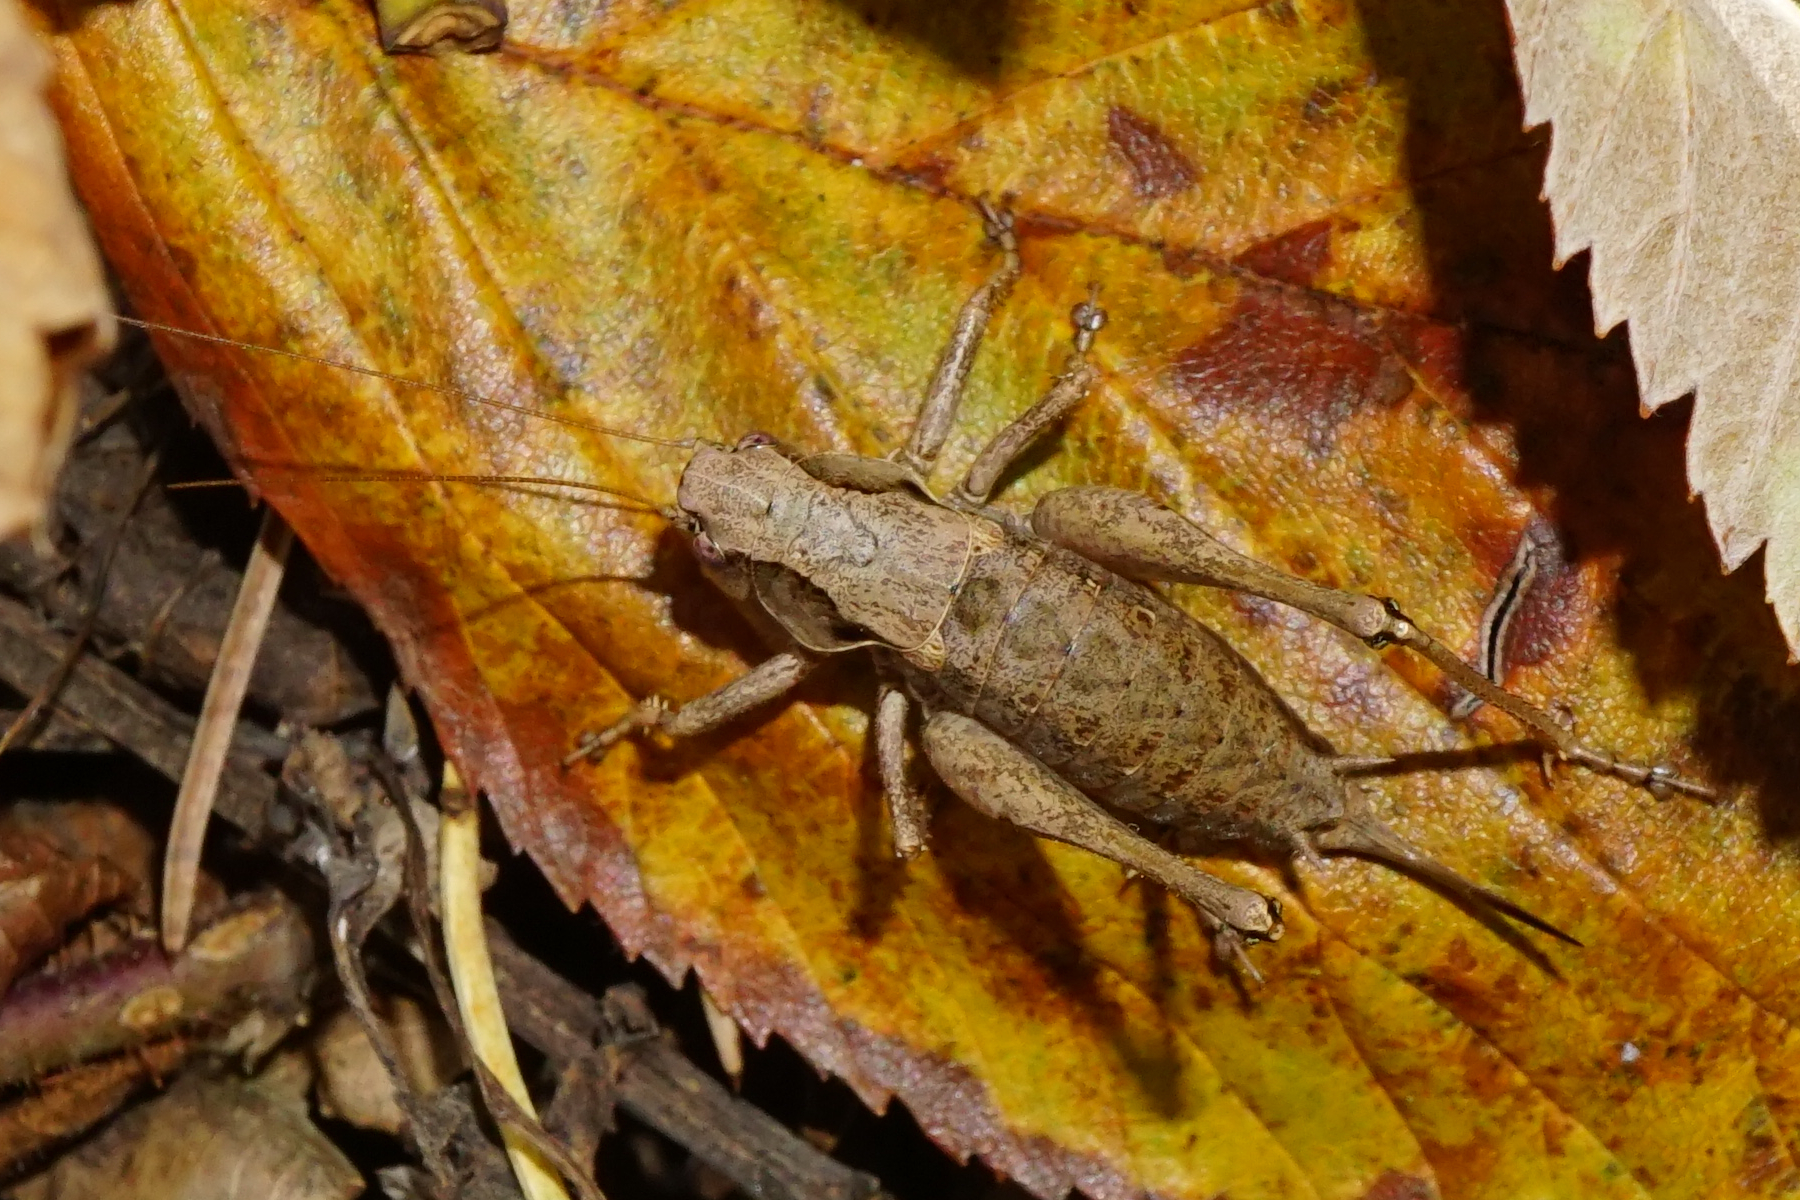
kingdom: Animalia
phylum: Arthropoda
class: Insecta
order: Orthoptera
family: Tettigoniidae
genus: Pholidoptera
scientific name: Pholidoptera griseoaptera
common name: Dark bush-cricket
